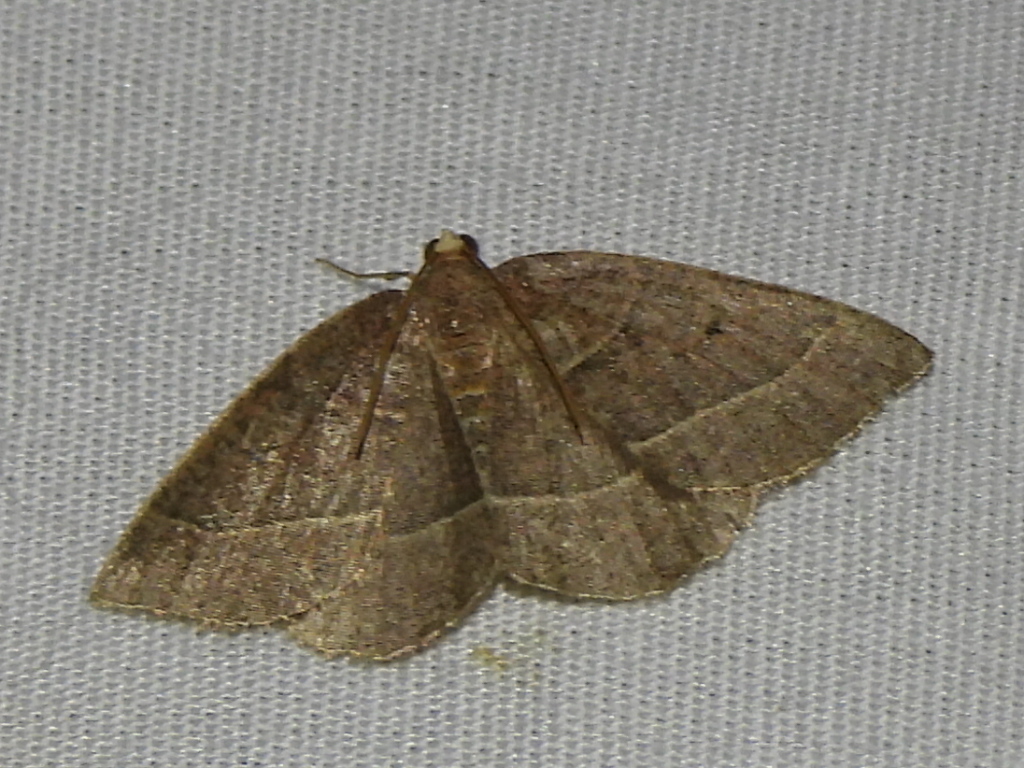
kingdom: Animalia
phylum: Arthropoda
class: Insecta
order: Lepidoptera
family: Geometridae
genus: Episemasia
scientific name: Episemasia cervinaria
